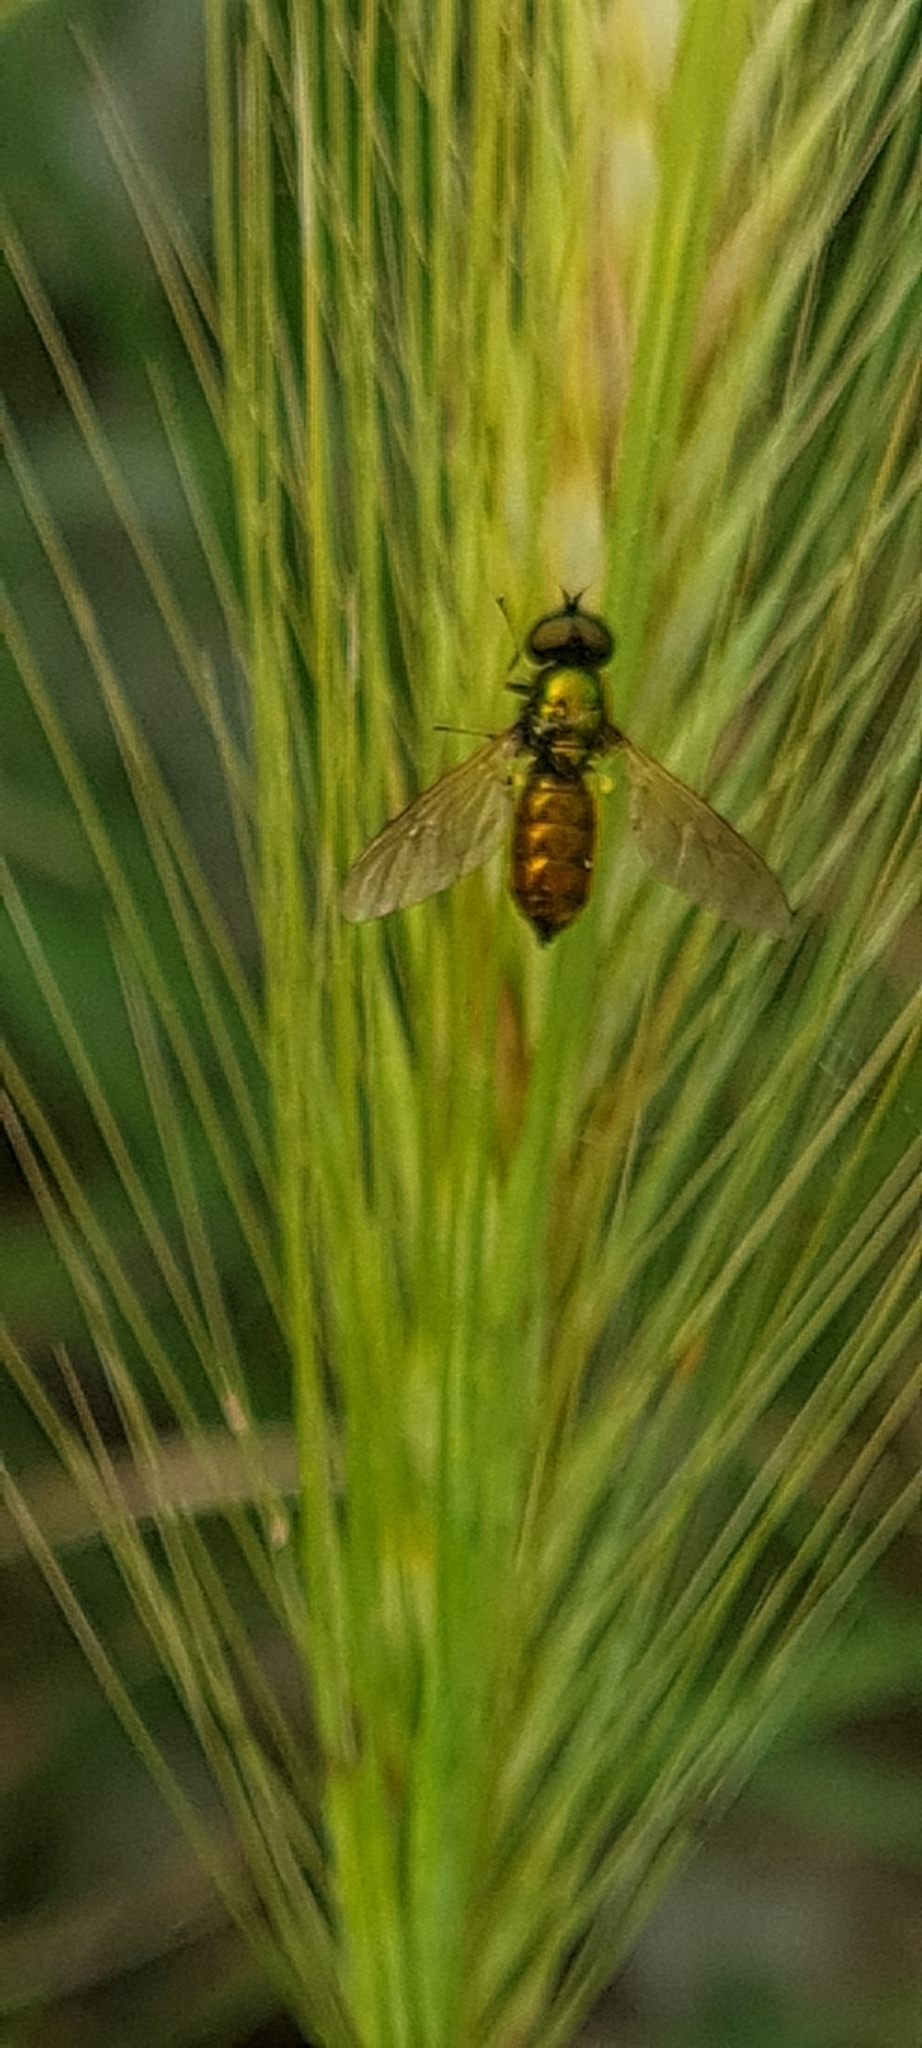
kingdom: Animalia
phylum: Arthropoda
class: Insecta
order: Diptera
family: Stratiomyidae
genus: Chloromyia
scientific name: Chloromyia formosa
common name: Soldier fly
